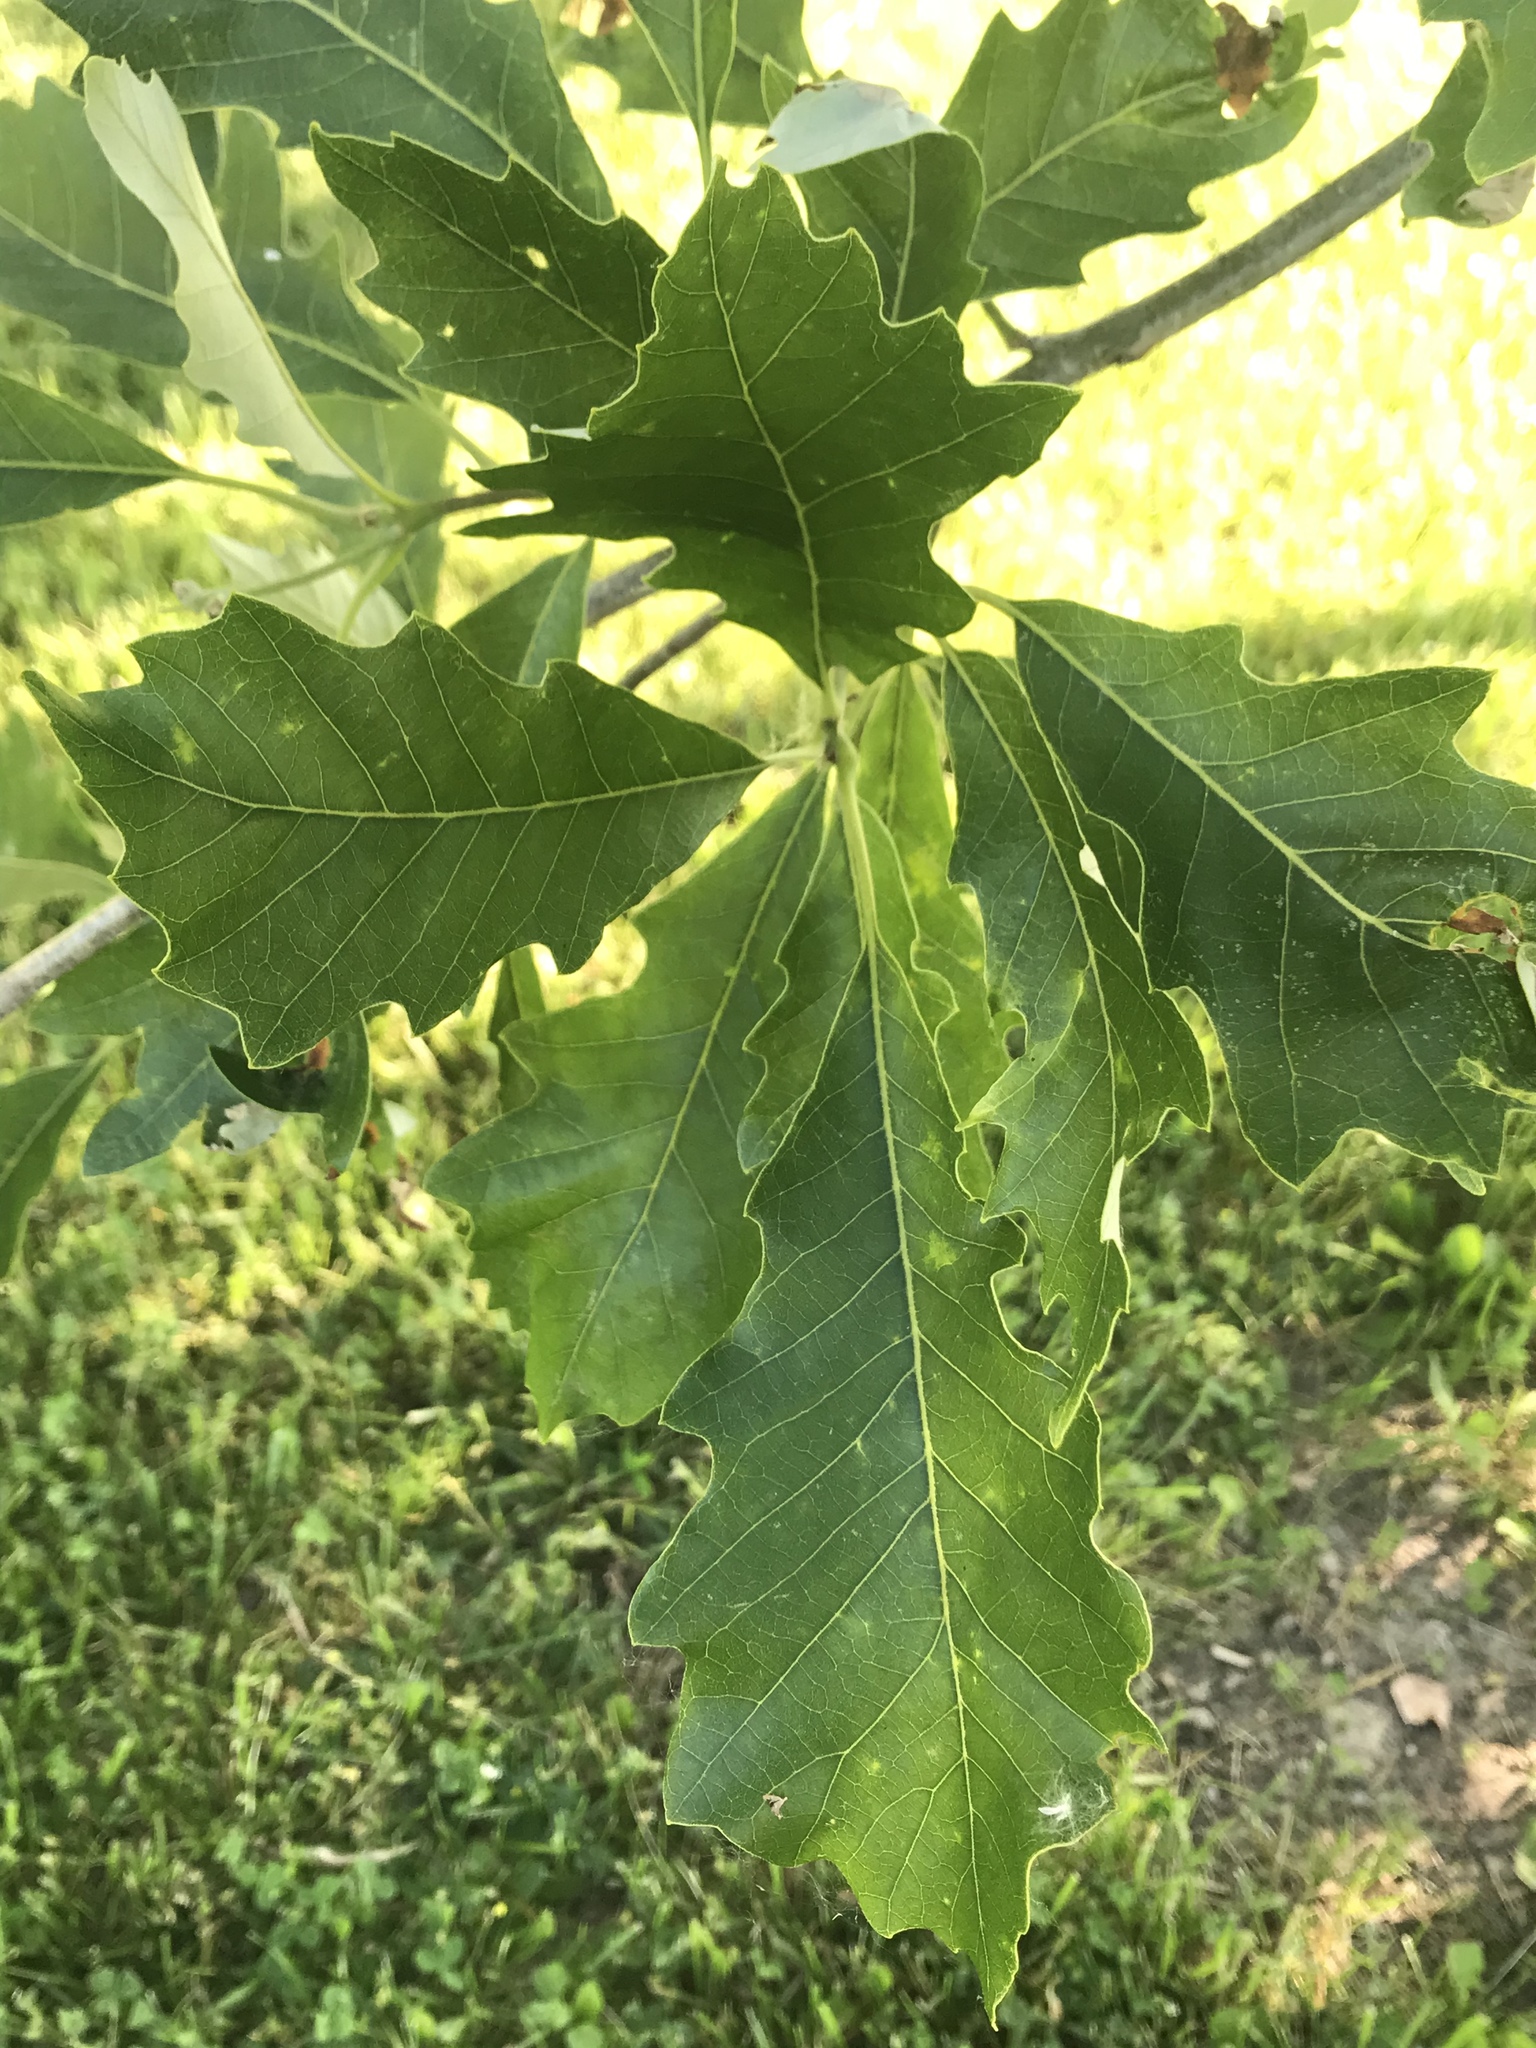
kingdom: Plantae
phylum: Tracheophyta
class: Magnoliopsida
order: Fagales
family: Fagaceae
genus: Quercus
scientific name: Quercus bicolor
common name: Swamp white oak
